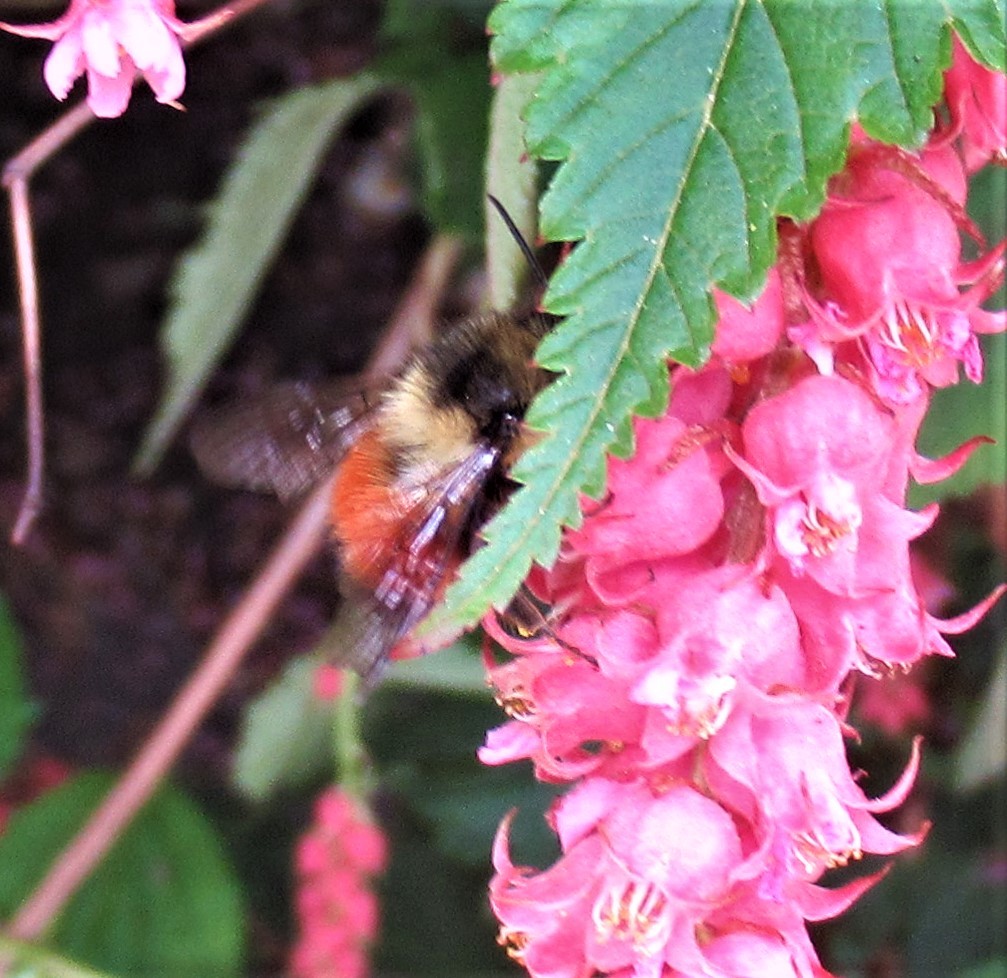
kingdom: Animalia
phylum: Arthropoda
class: Insecta
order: Hymenoptera
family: Apidae
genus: Bombus
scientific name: Bombus melanopygus
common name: Black tail bumble bee
